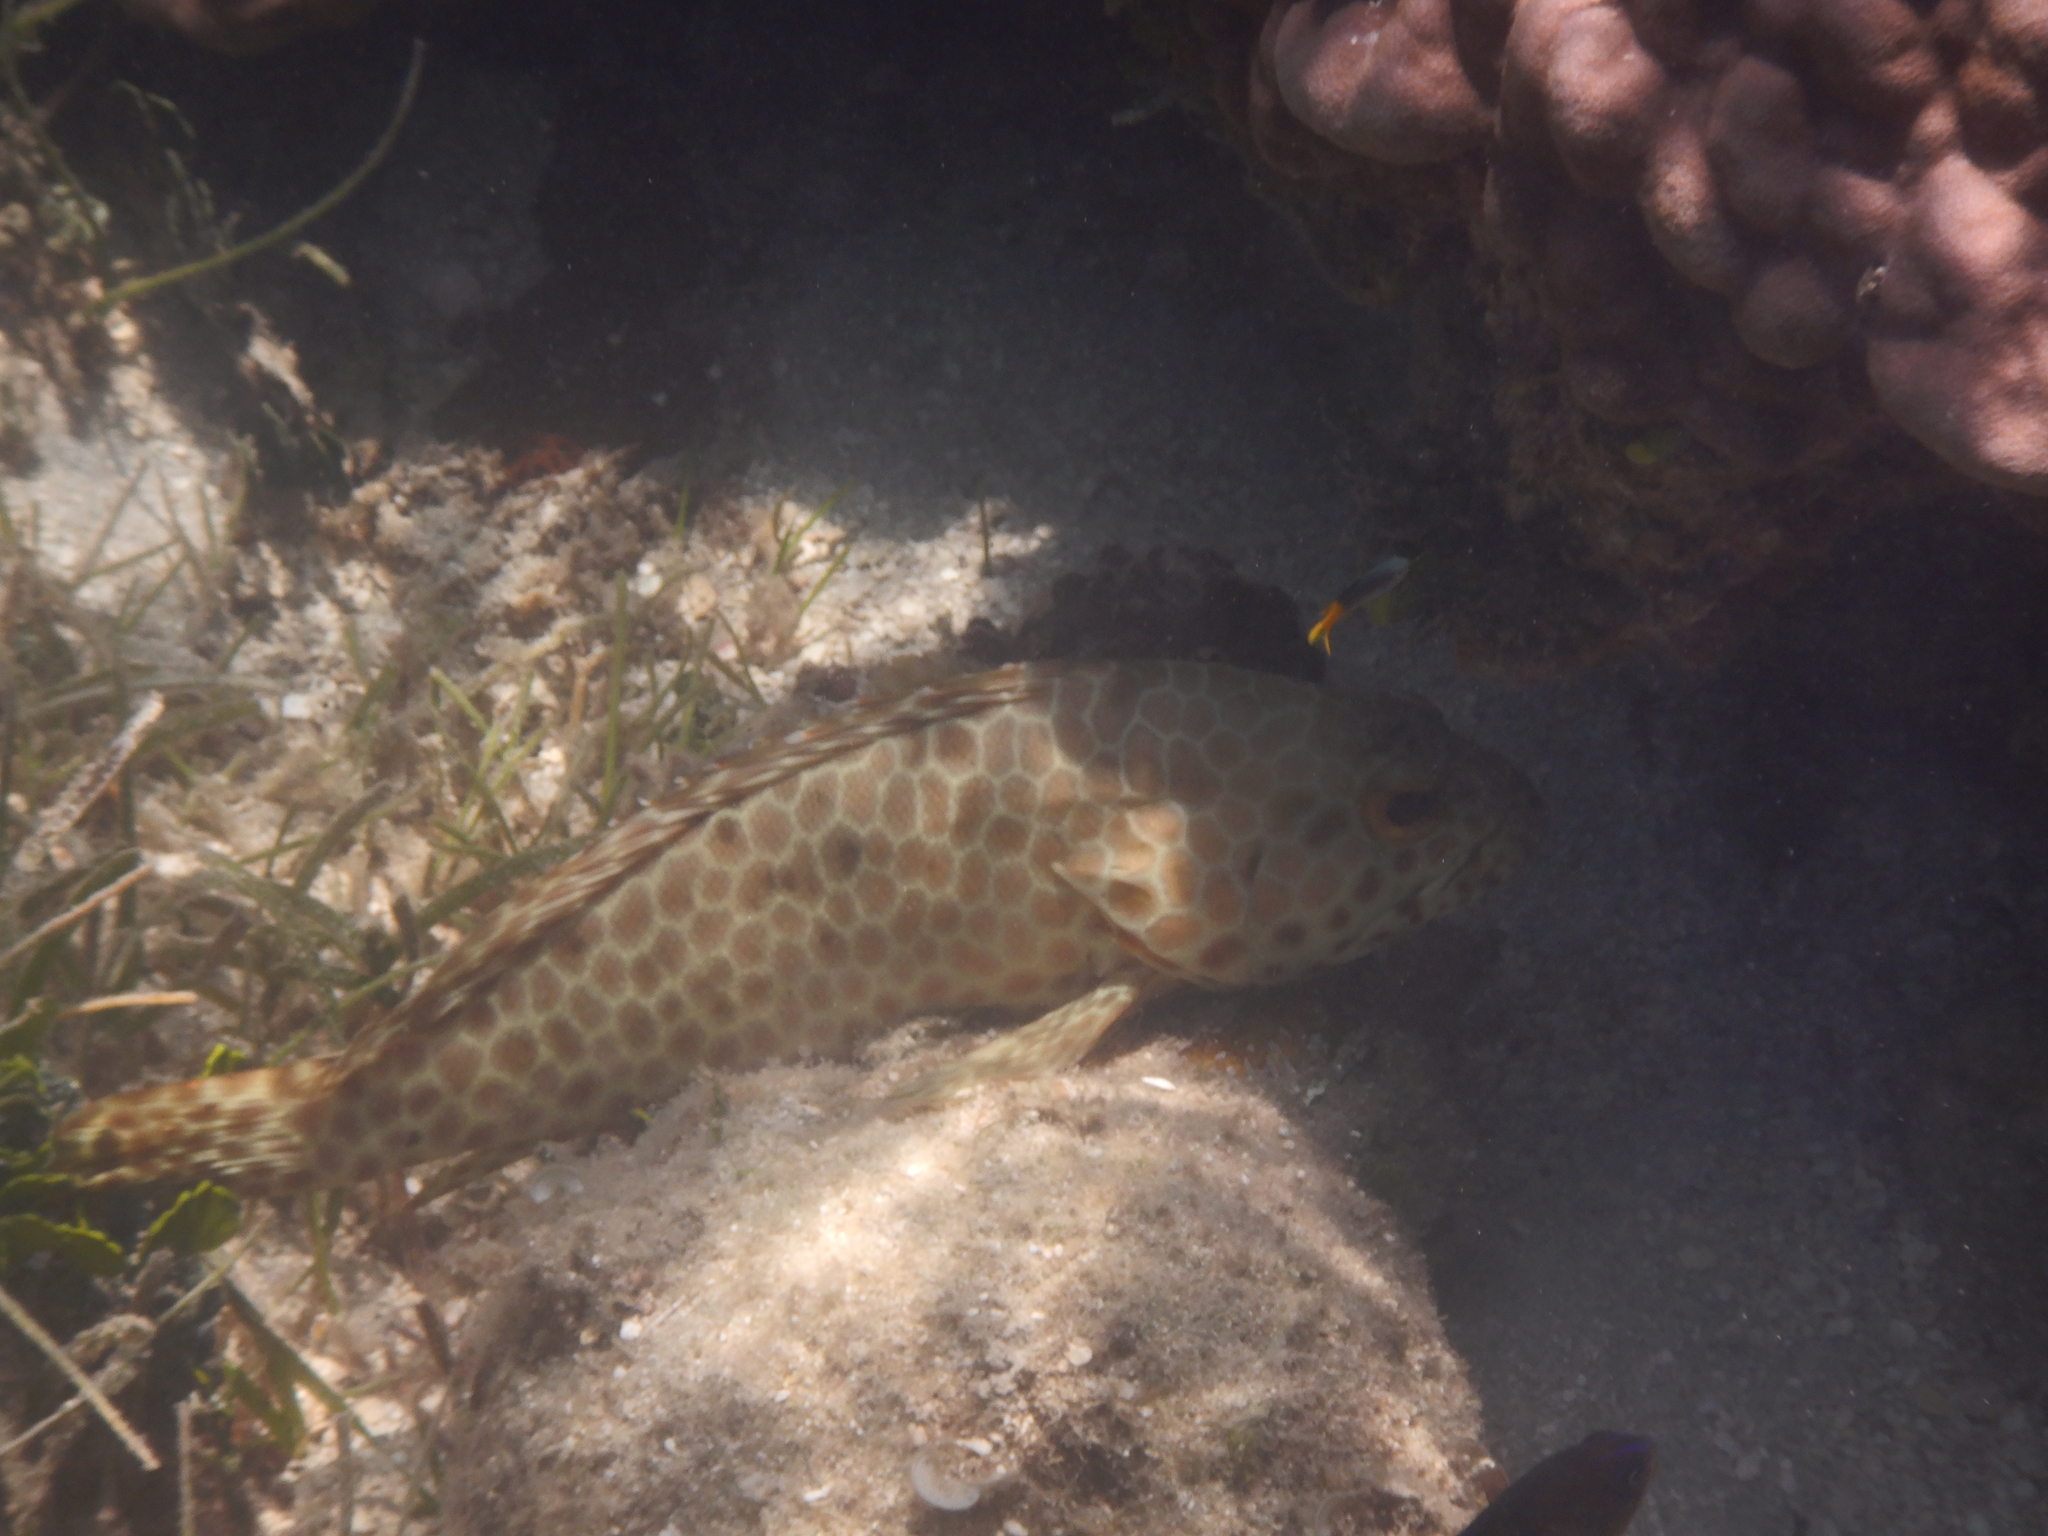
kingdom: Animalia
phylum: Chordata
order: Perciformes
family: Serranidae
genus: Epinephelus
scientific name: Epinephelus merra
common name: Honeycomb grouper
